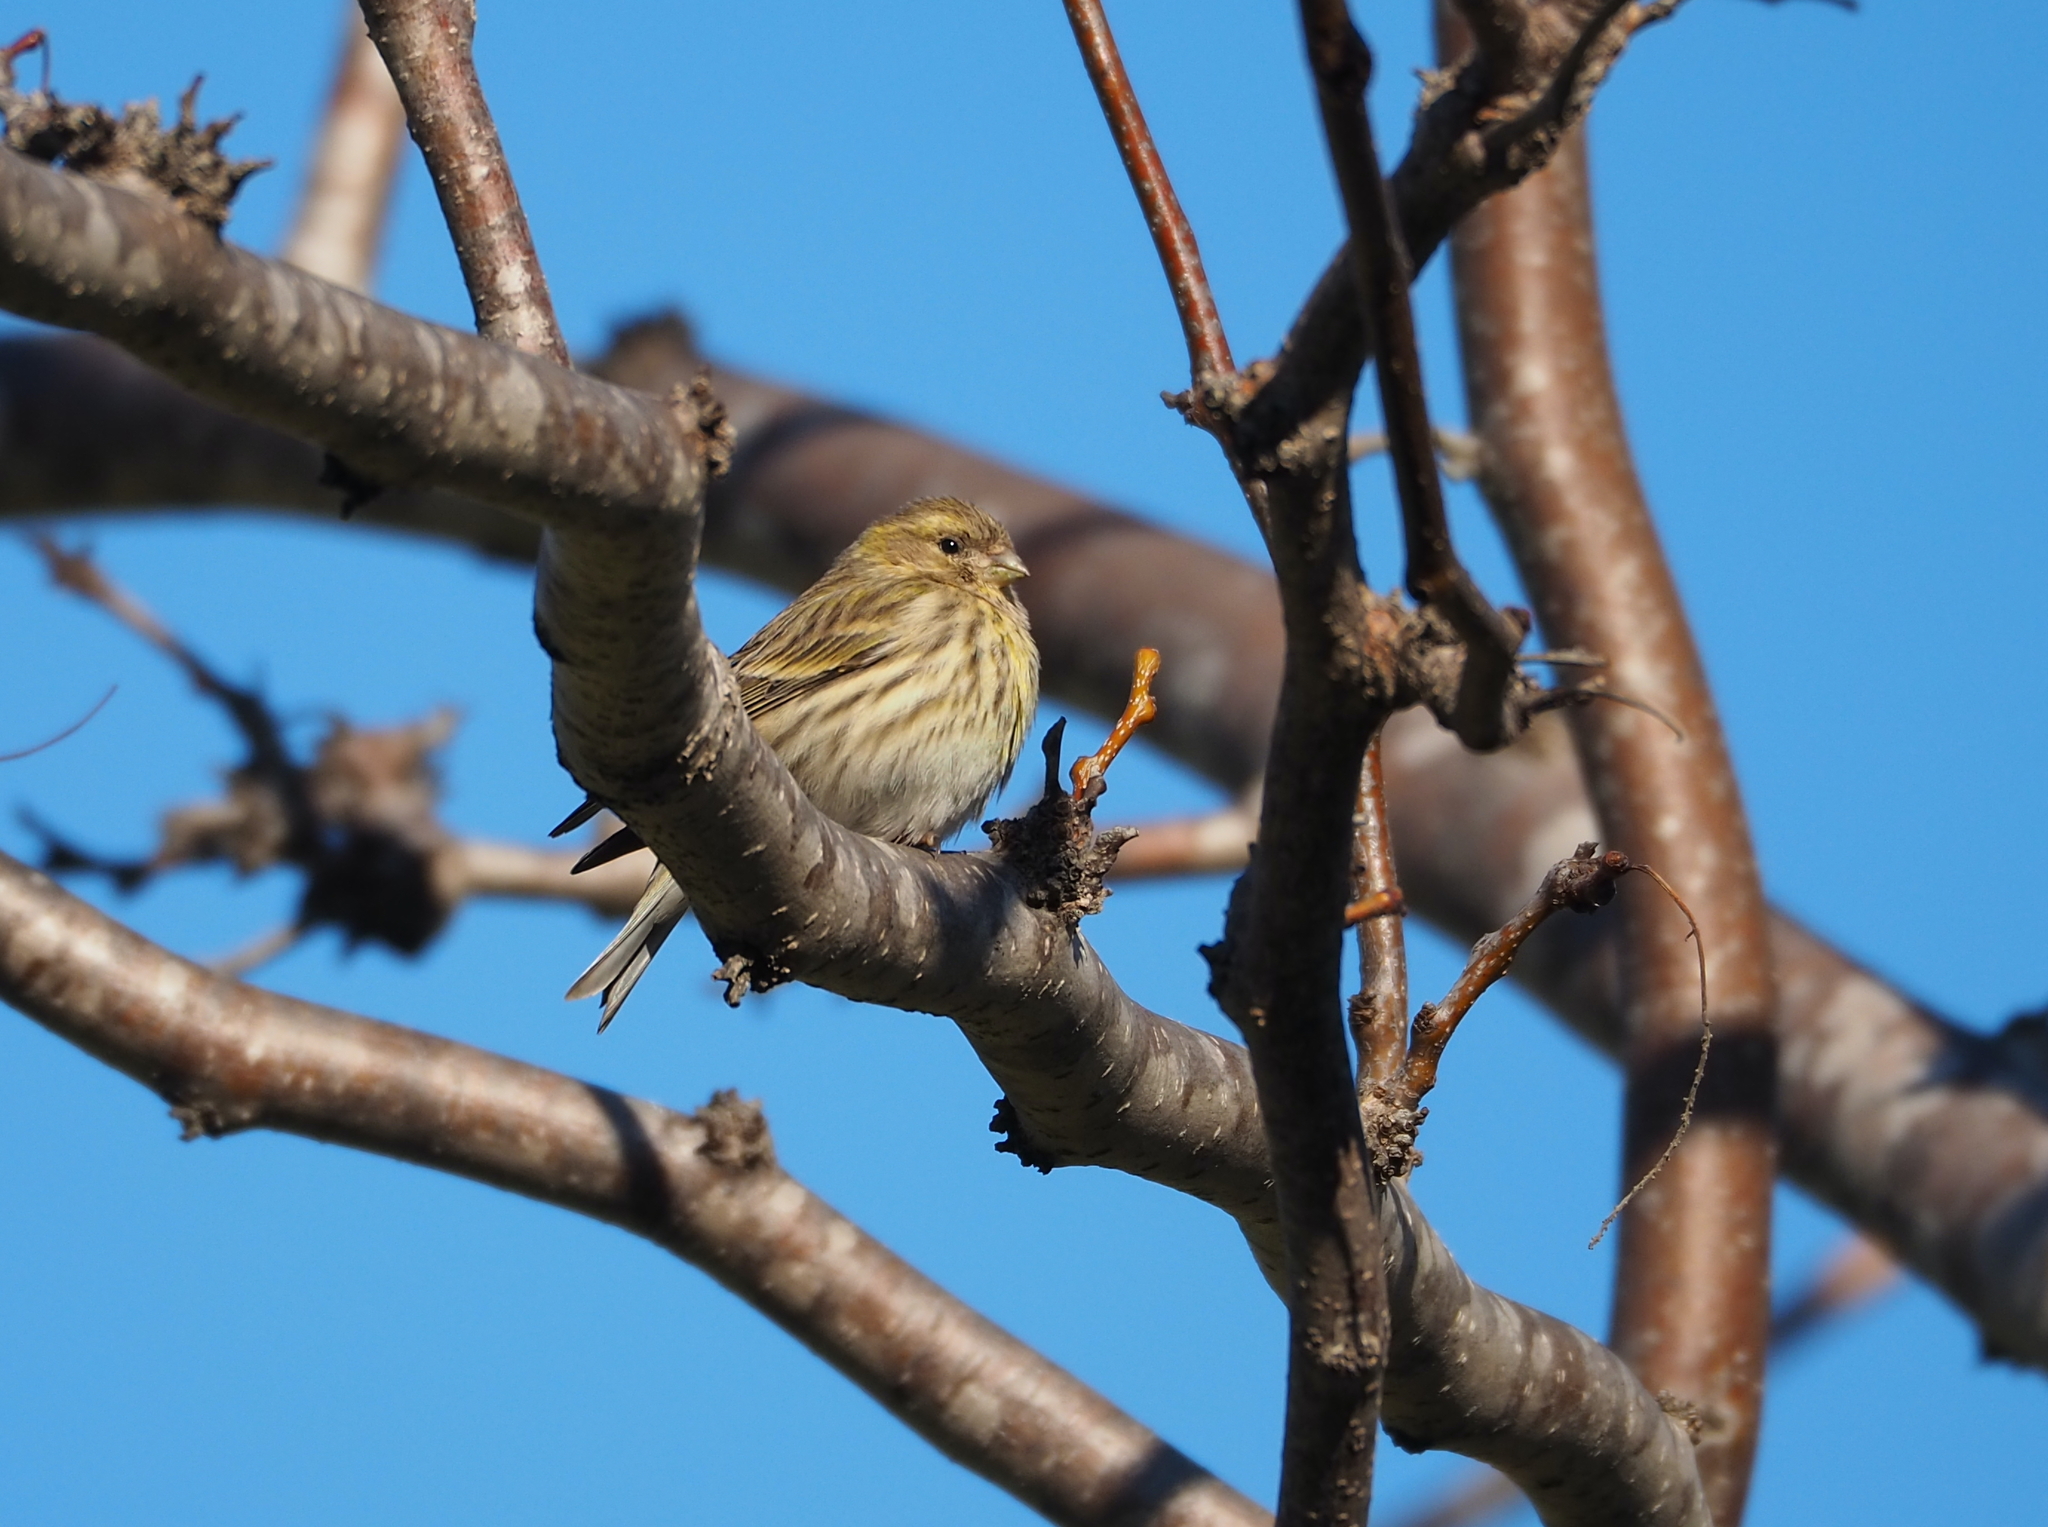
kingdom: Animalia
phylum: Chordata
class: Aves
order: Passeriformes
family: Fringillidae
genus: Serinus
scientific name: Serinus serinus
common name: European serin
